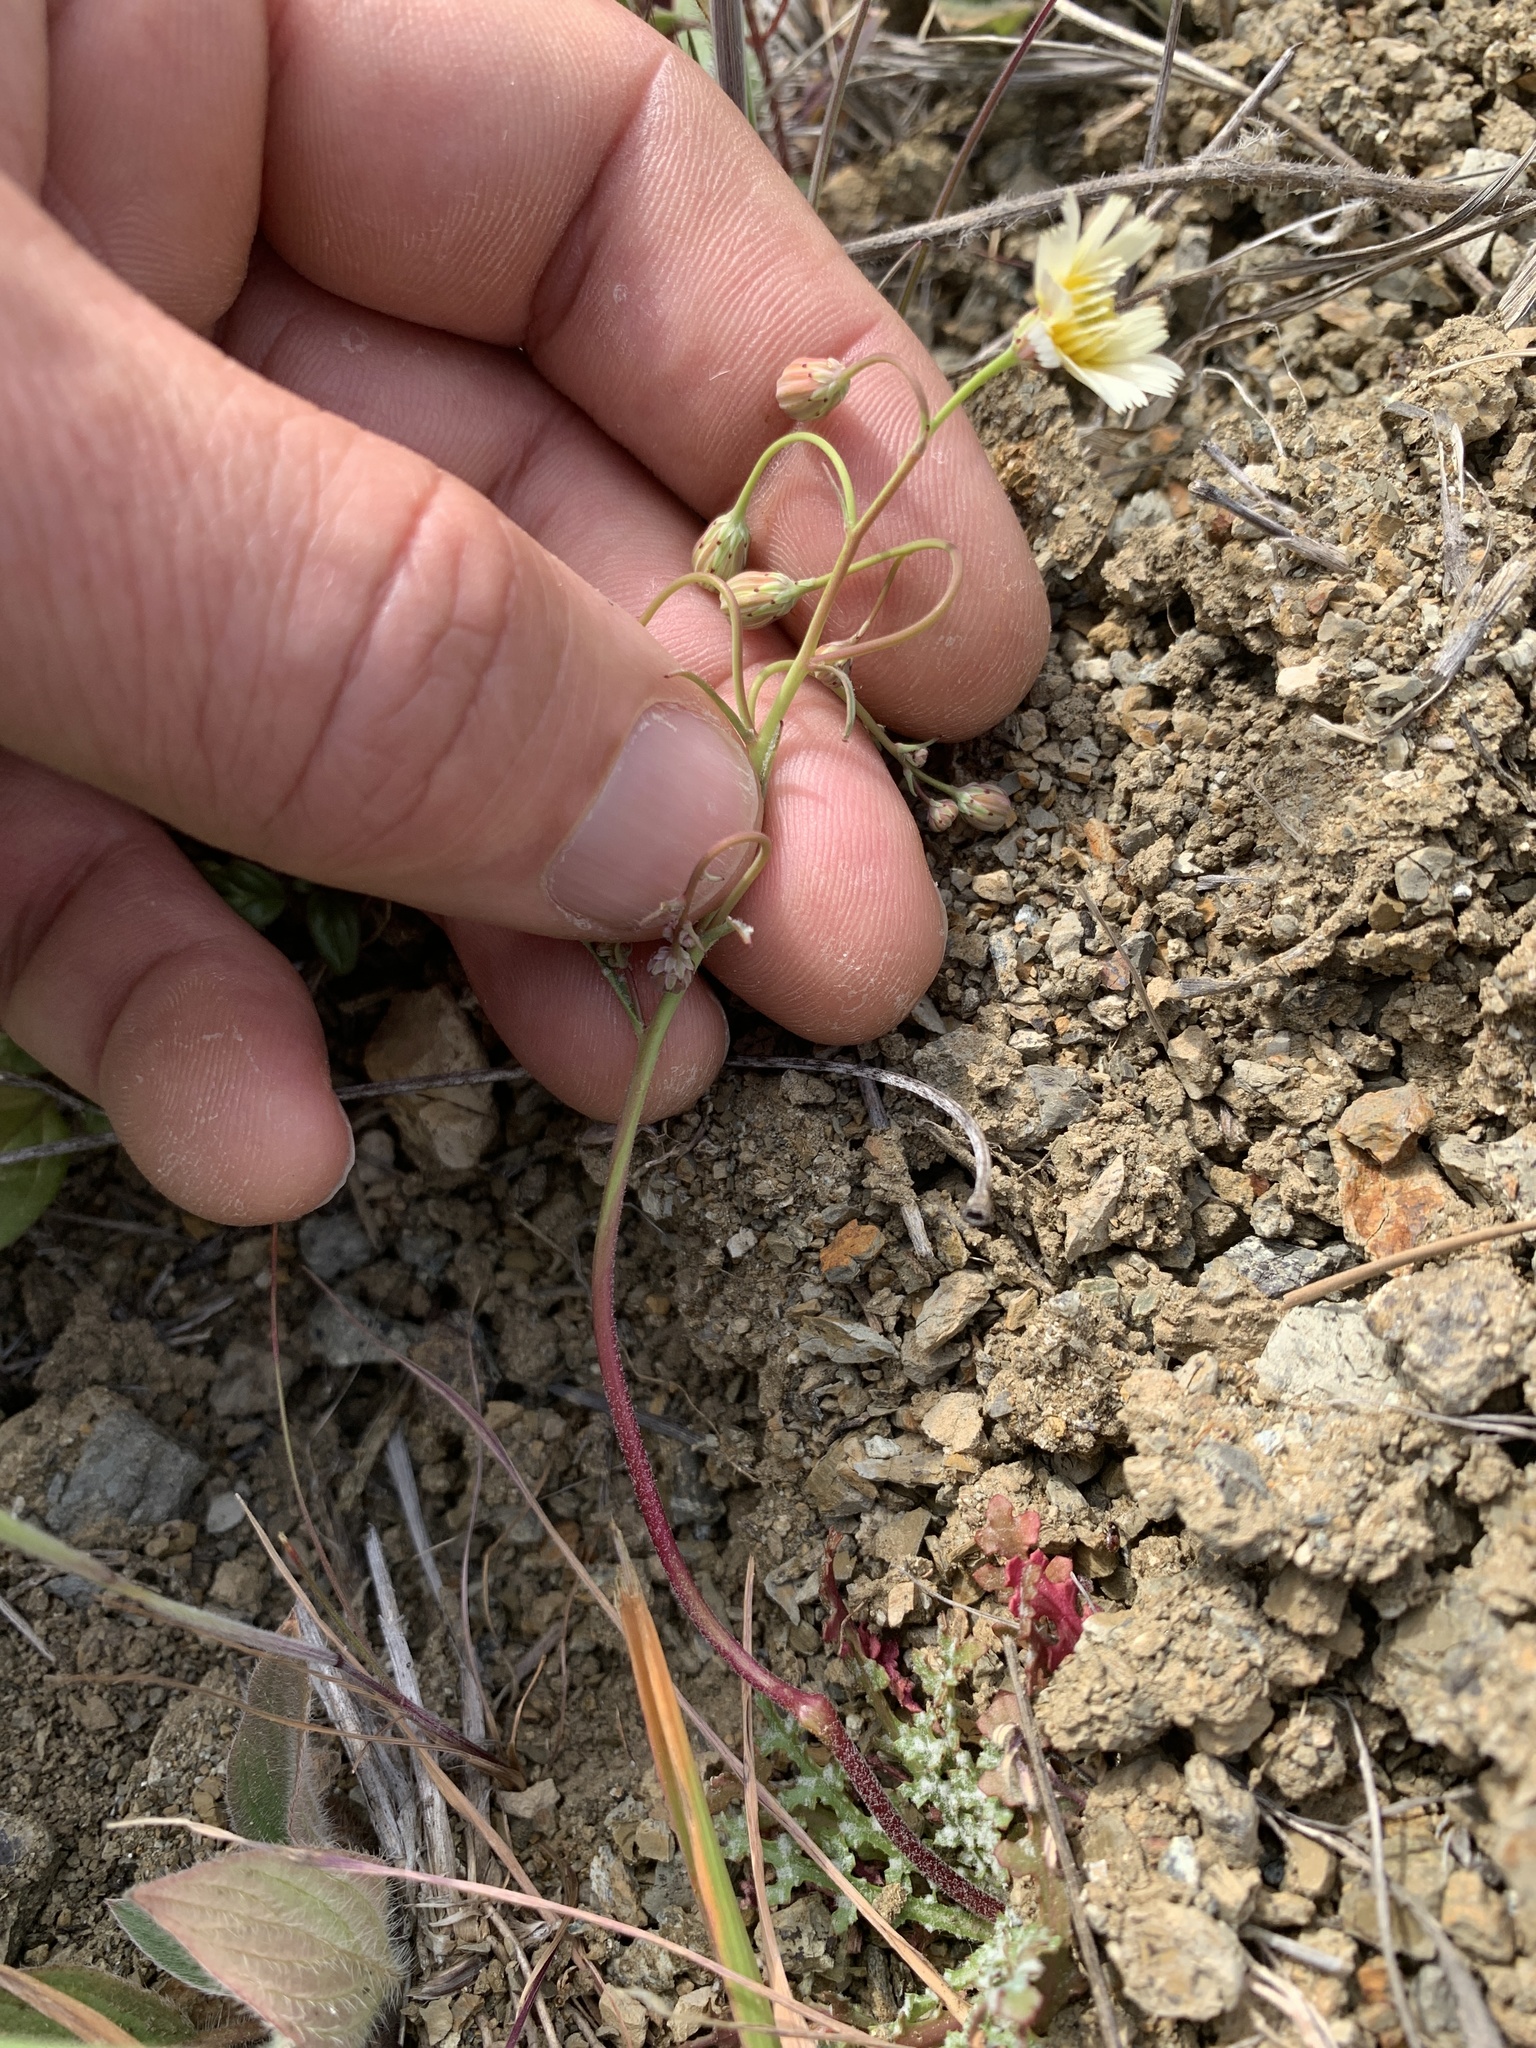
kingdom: Plantae
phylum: Tracheophyta
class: Magnoliopsida
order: Asterales
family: Asteraceae
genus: Malacothrix
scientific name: Malacothrix floccifera
